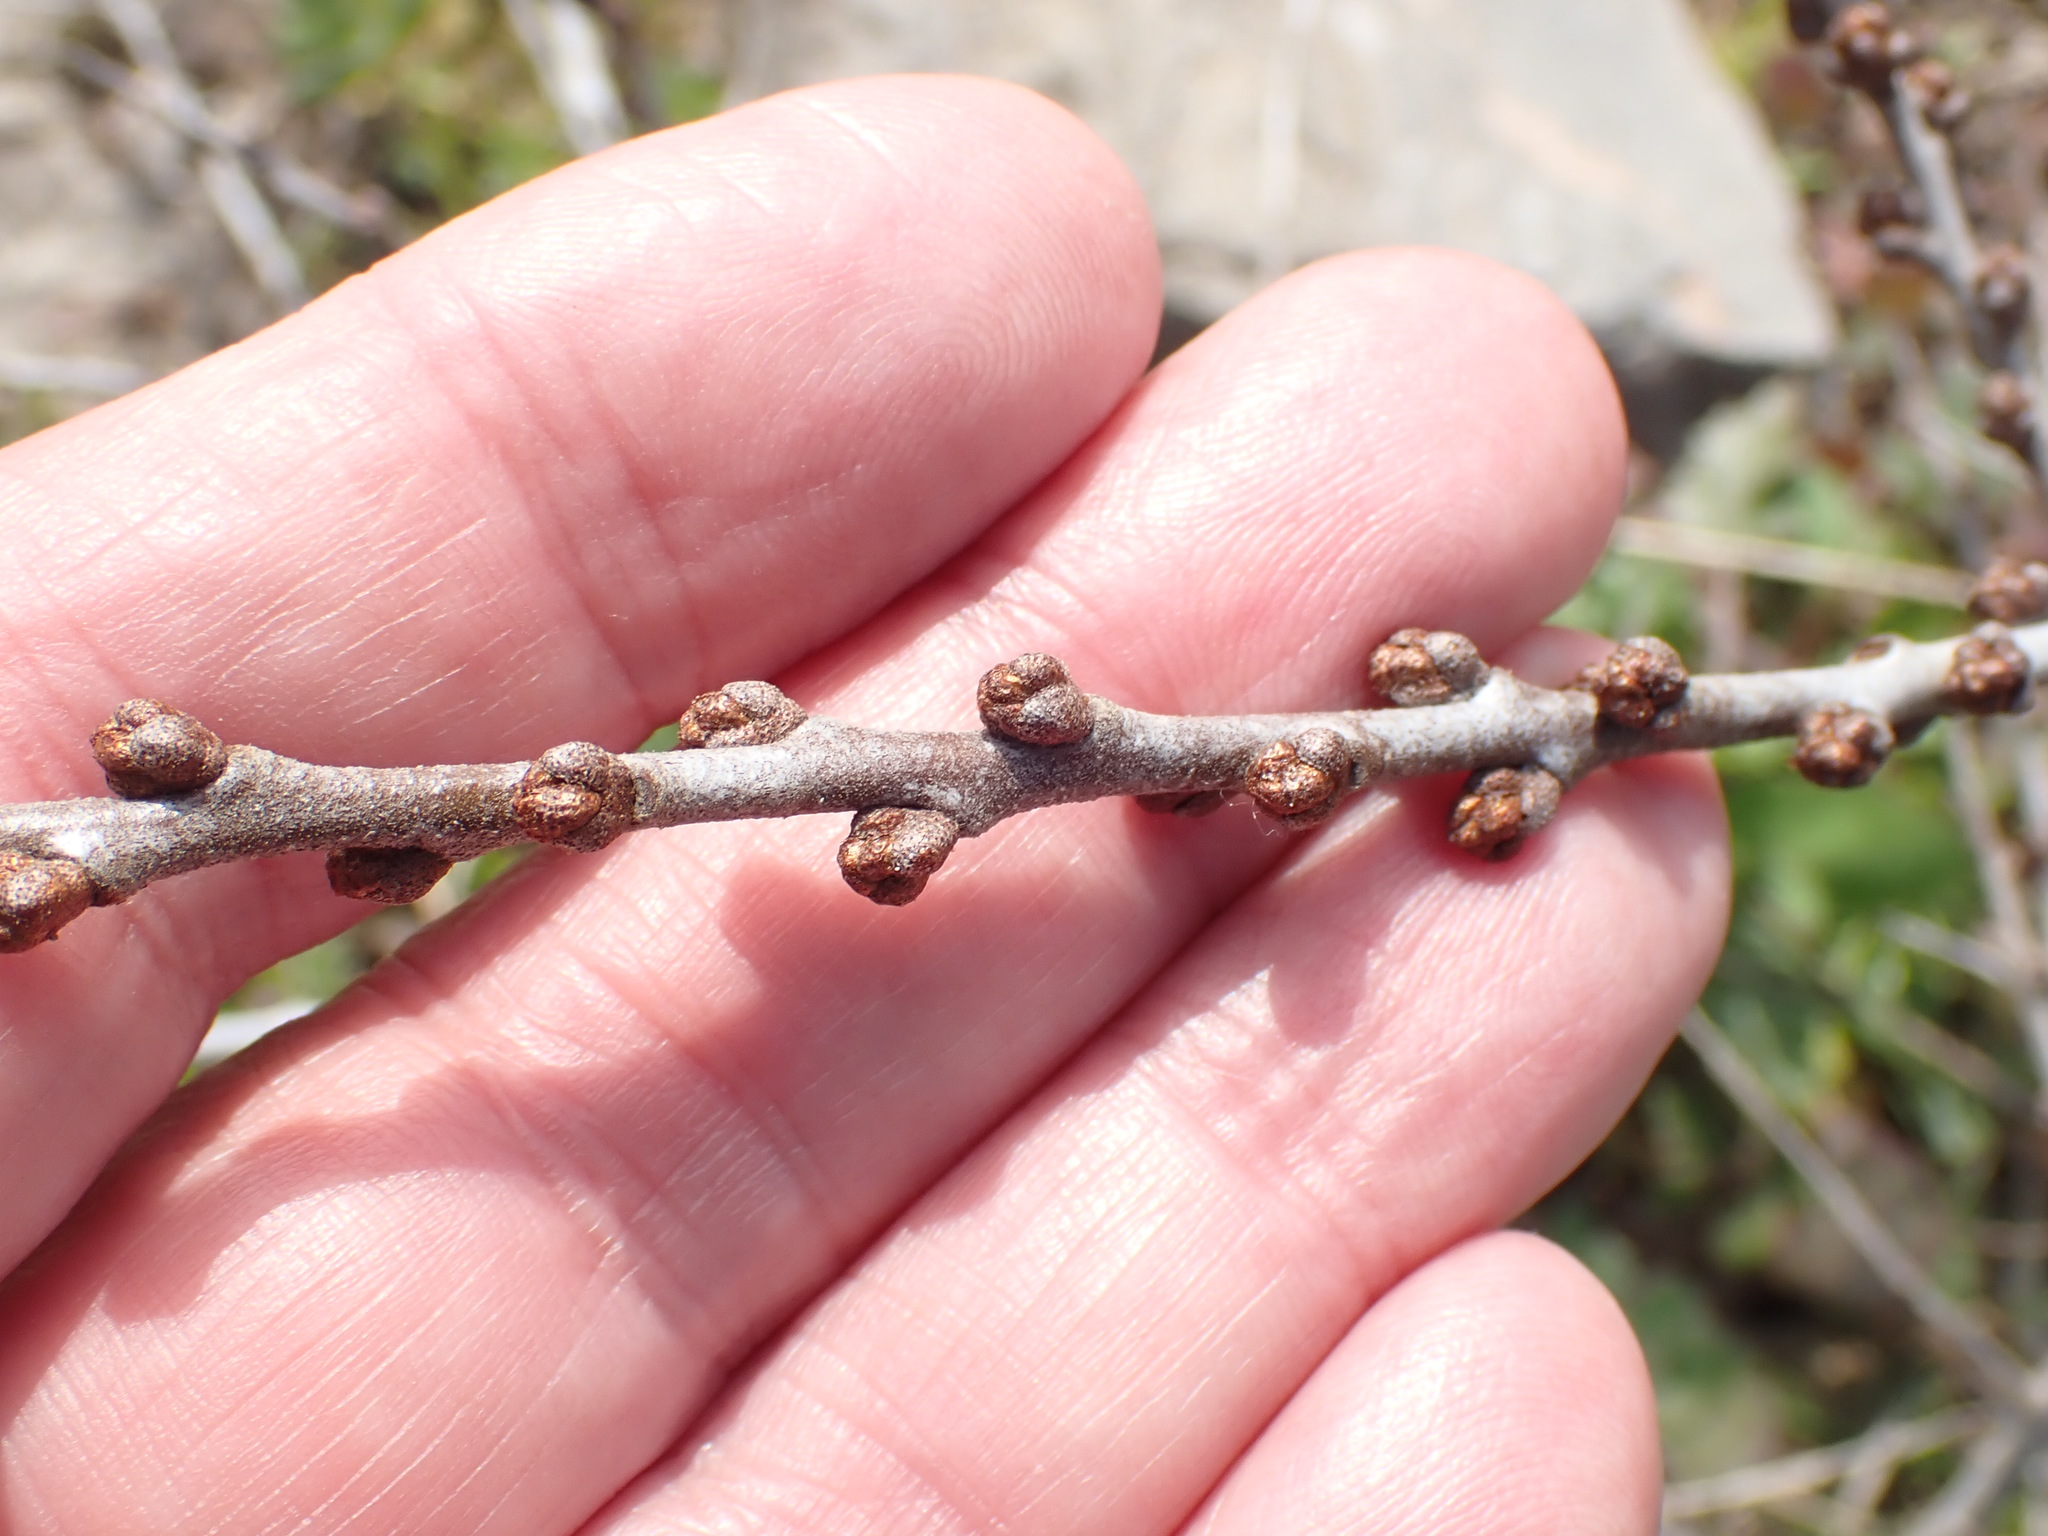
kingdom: Plantae
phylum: Tracheophyta
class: Magnoliopsida
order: Rosales
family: Elaeagnaceae
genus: Hippophae
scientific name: Hippophae rhamnoides
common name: Sea-buckthorn
